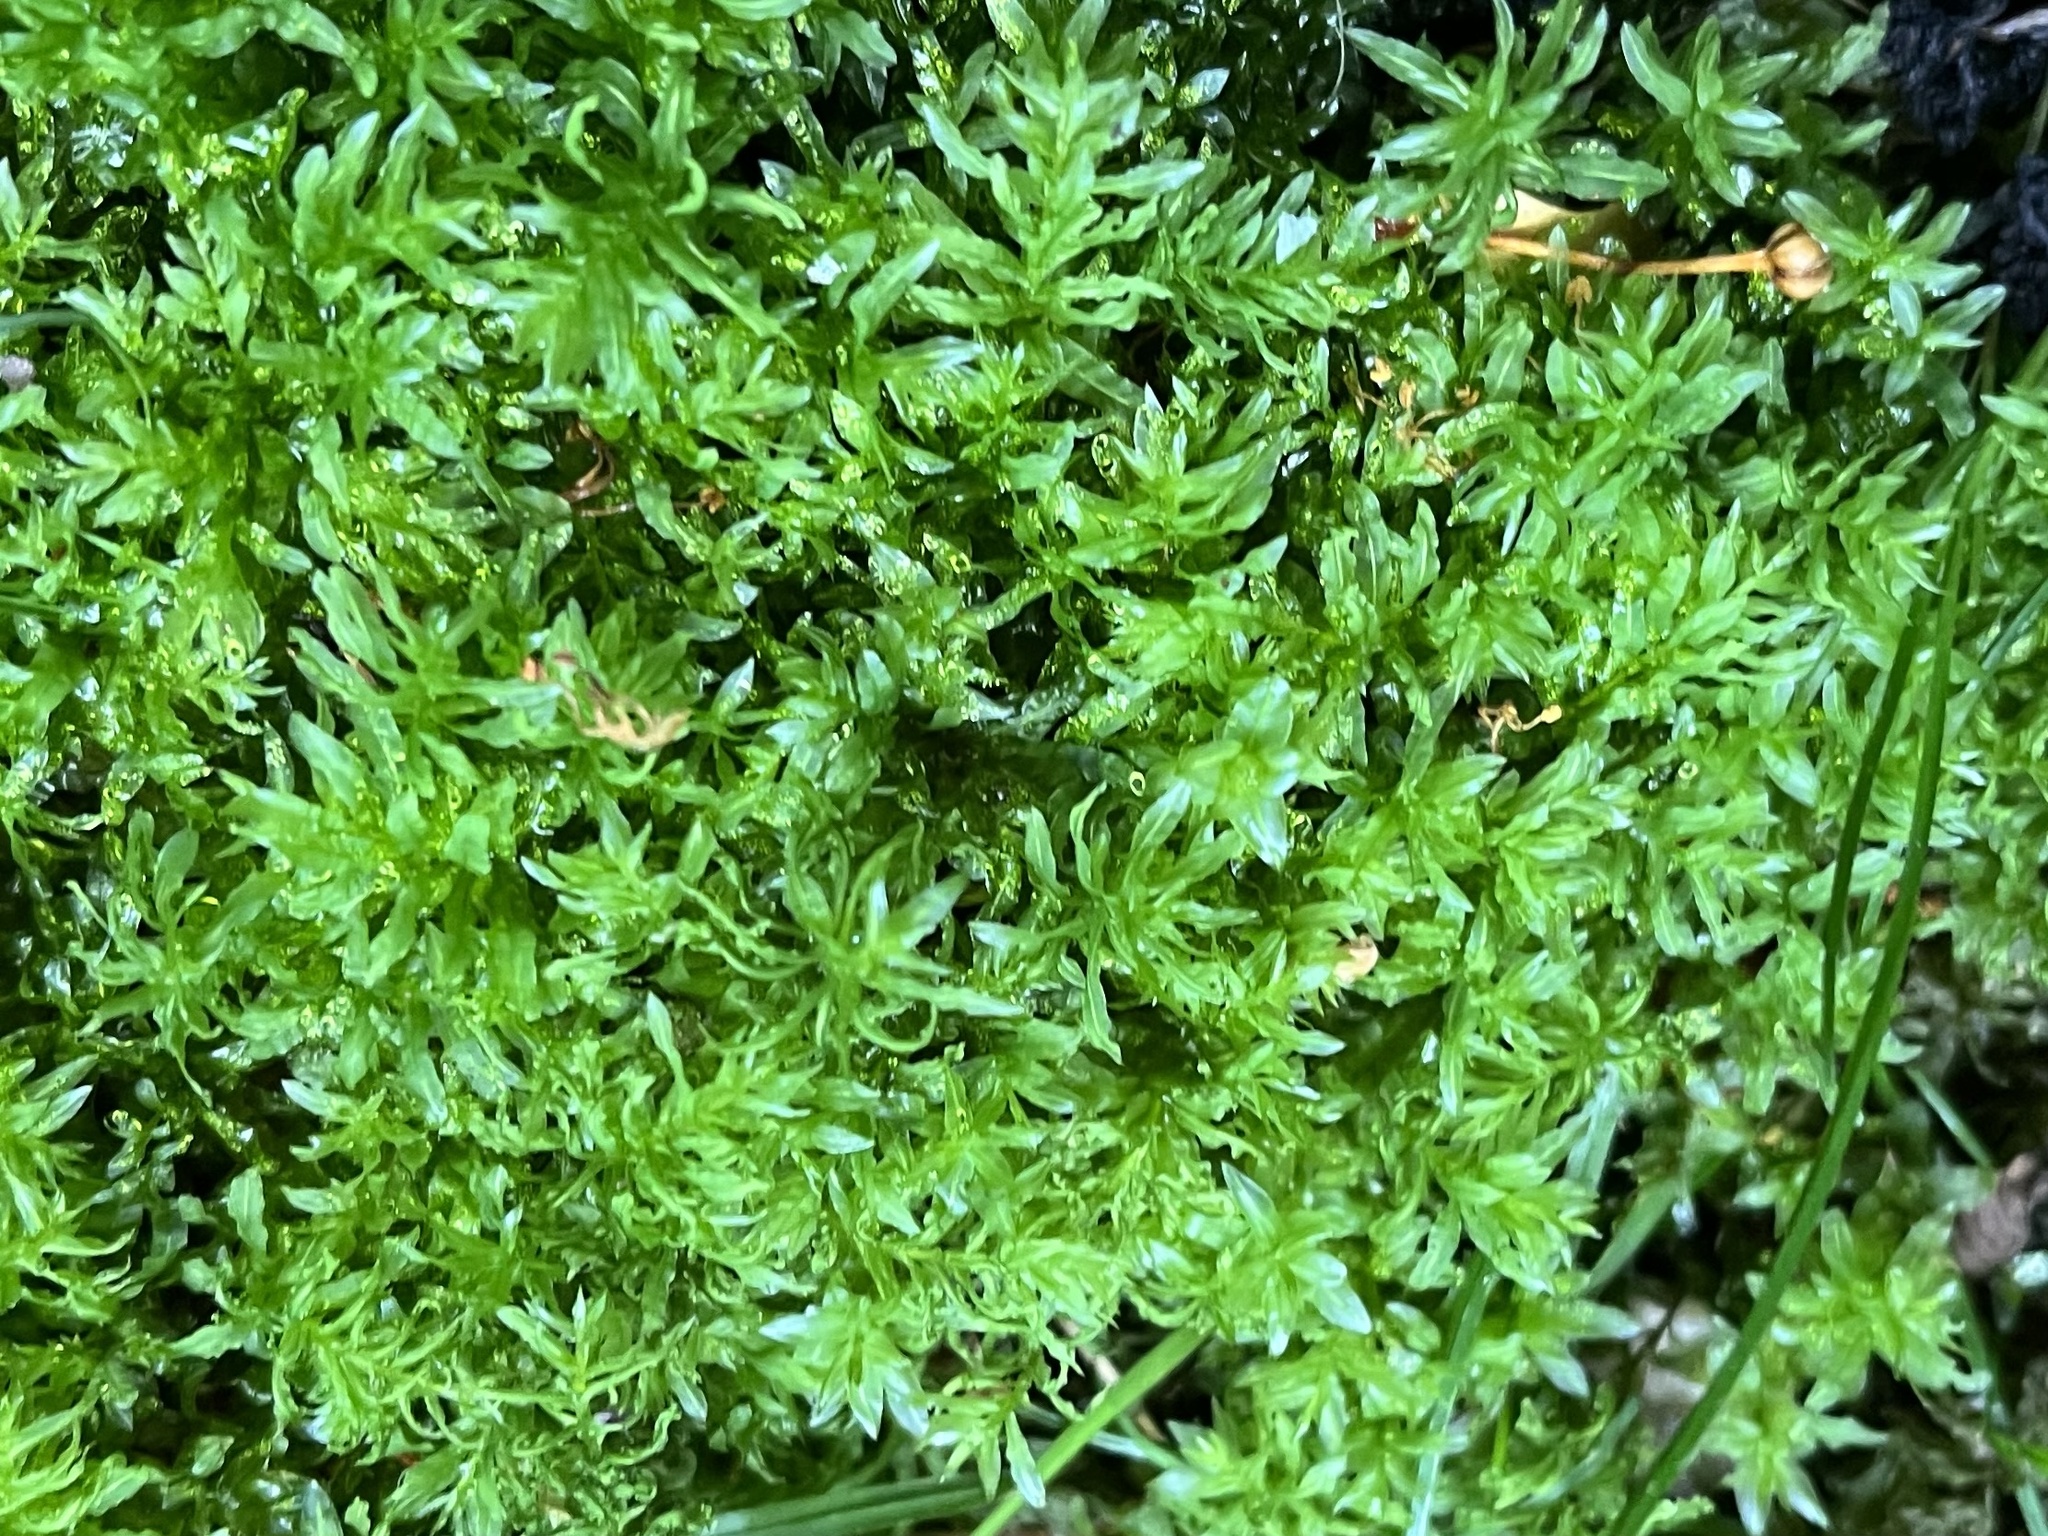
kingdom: Plantae
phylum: Bryophyta
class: Bryopsida
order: Bryales
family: Mniaceae
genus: Plagiomnium
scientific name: Plagiomnium undulatum
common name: Hart's-tongue thyme-moss
